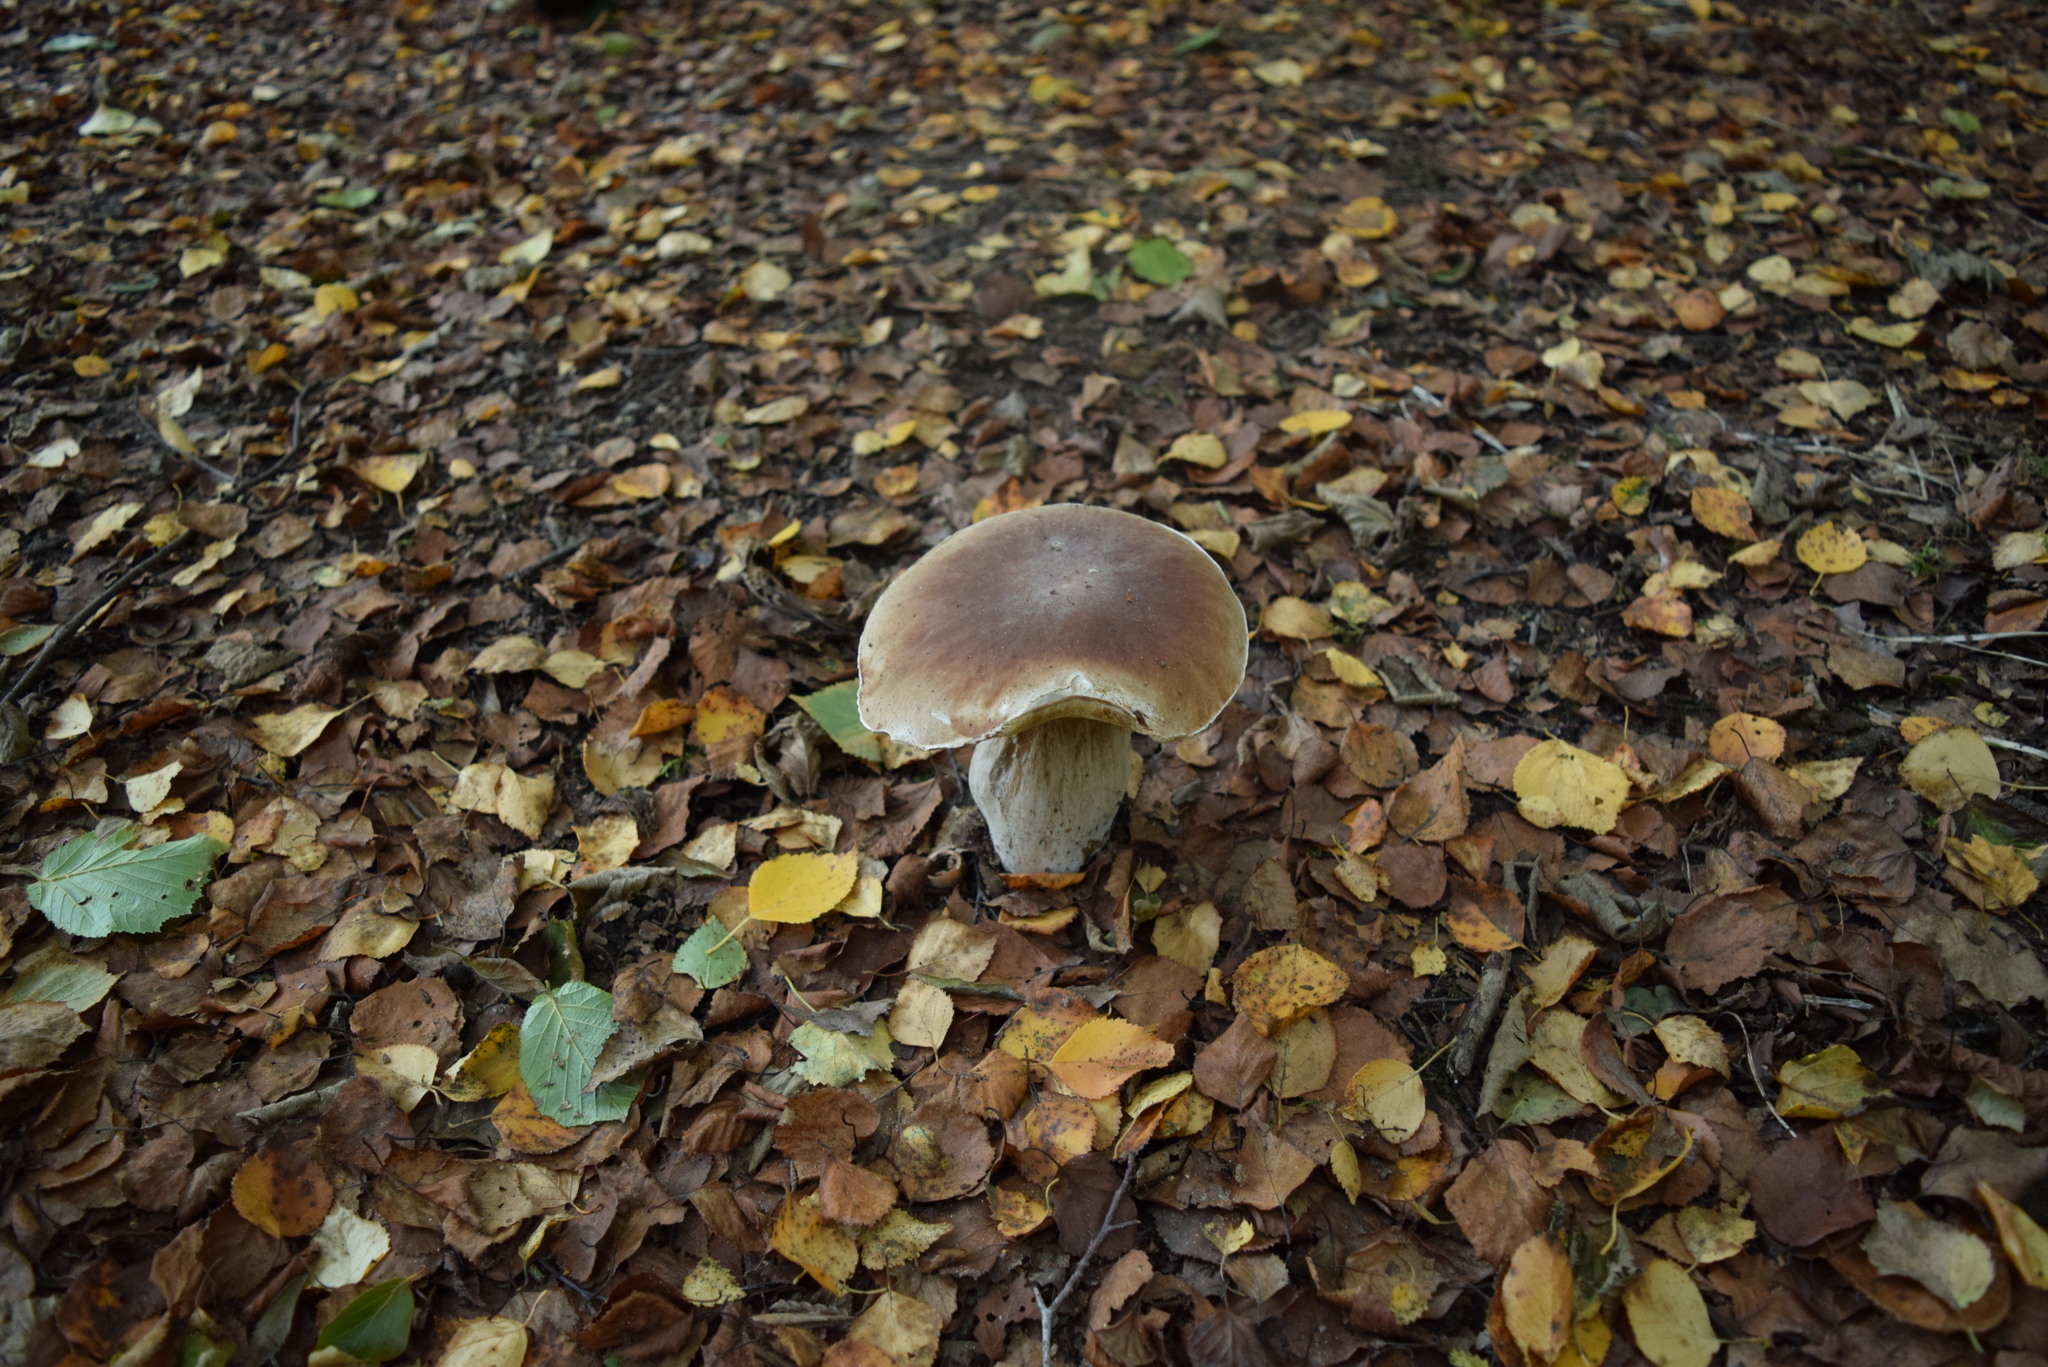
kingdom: Fungi
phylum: Basidiomycota
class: Agaricomycetes
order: Boletales
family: Boletaceae
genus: Boletus
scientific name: Boletus edulis
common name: Cep
